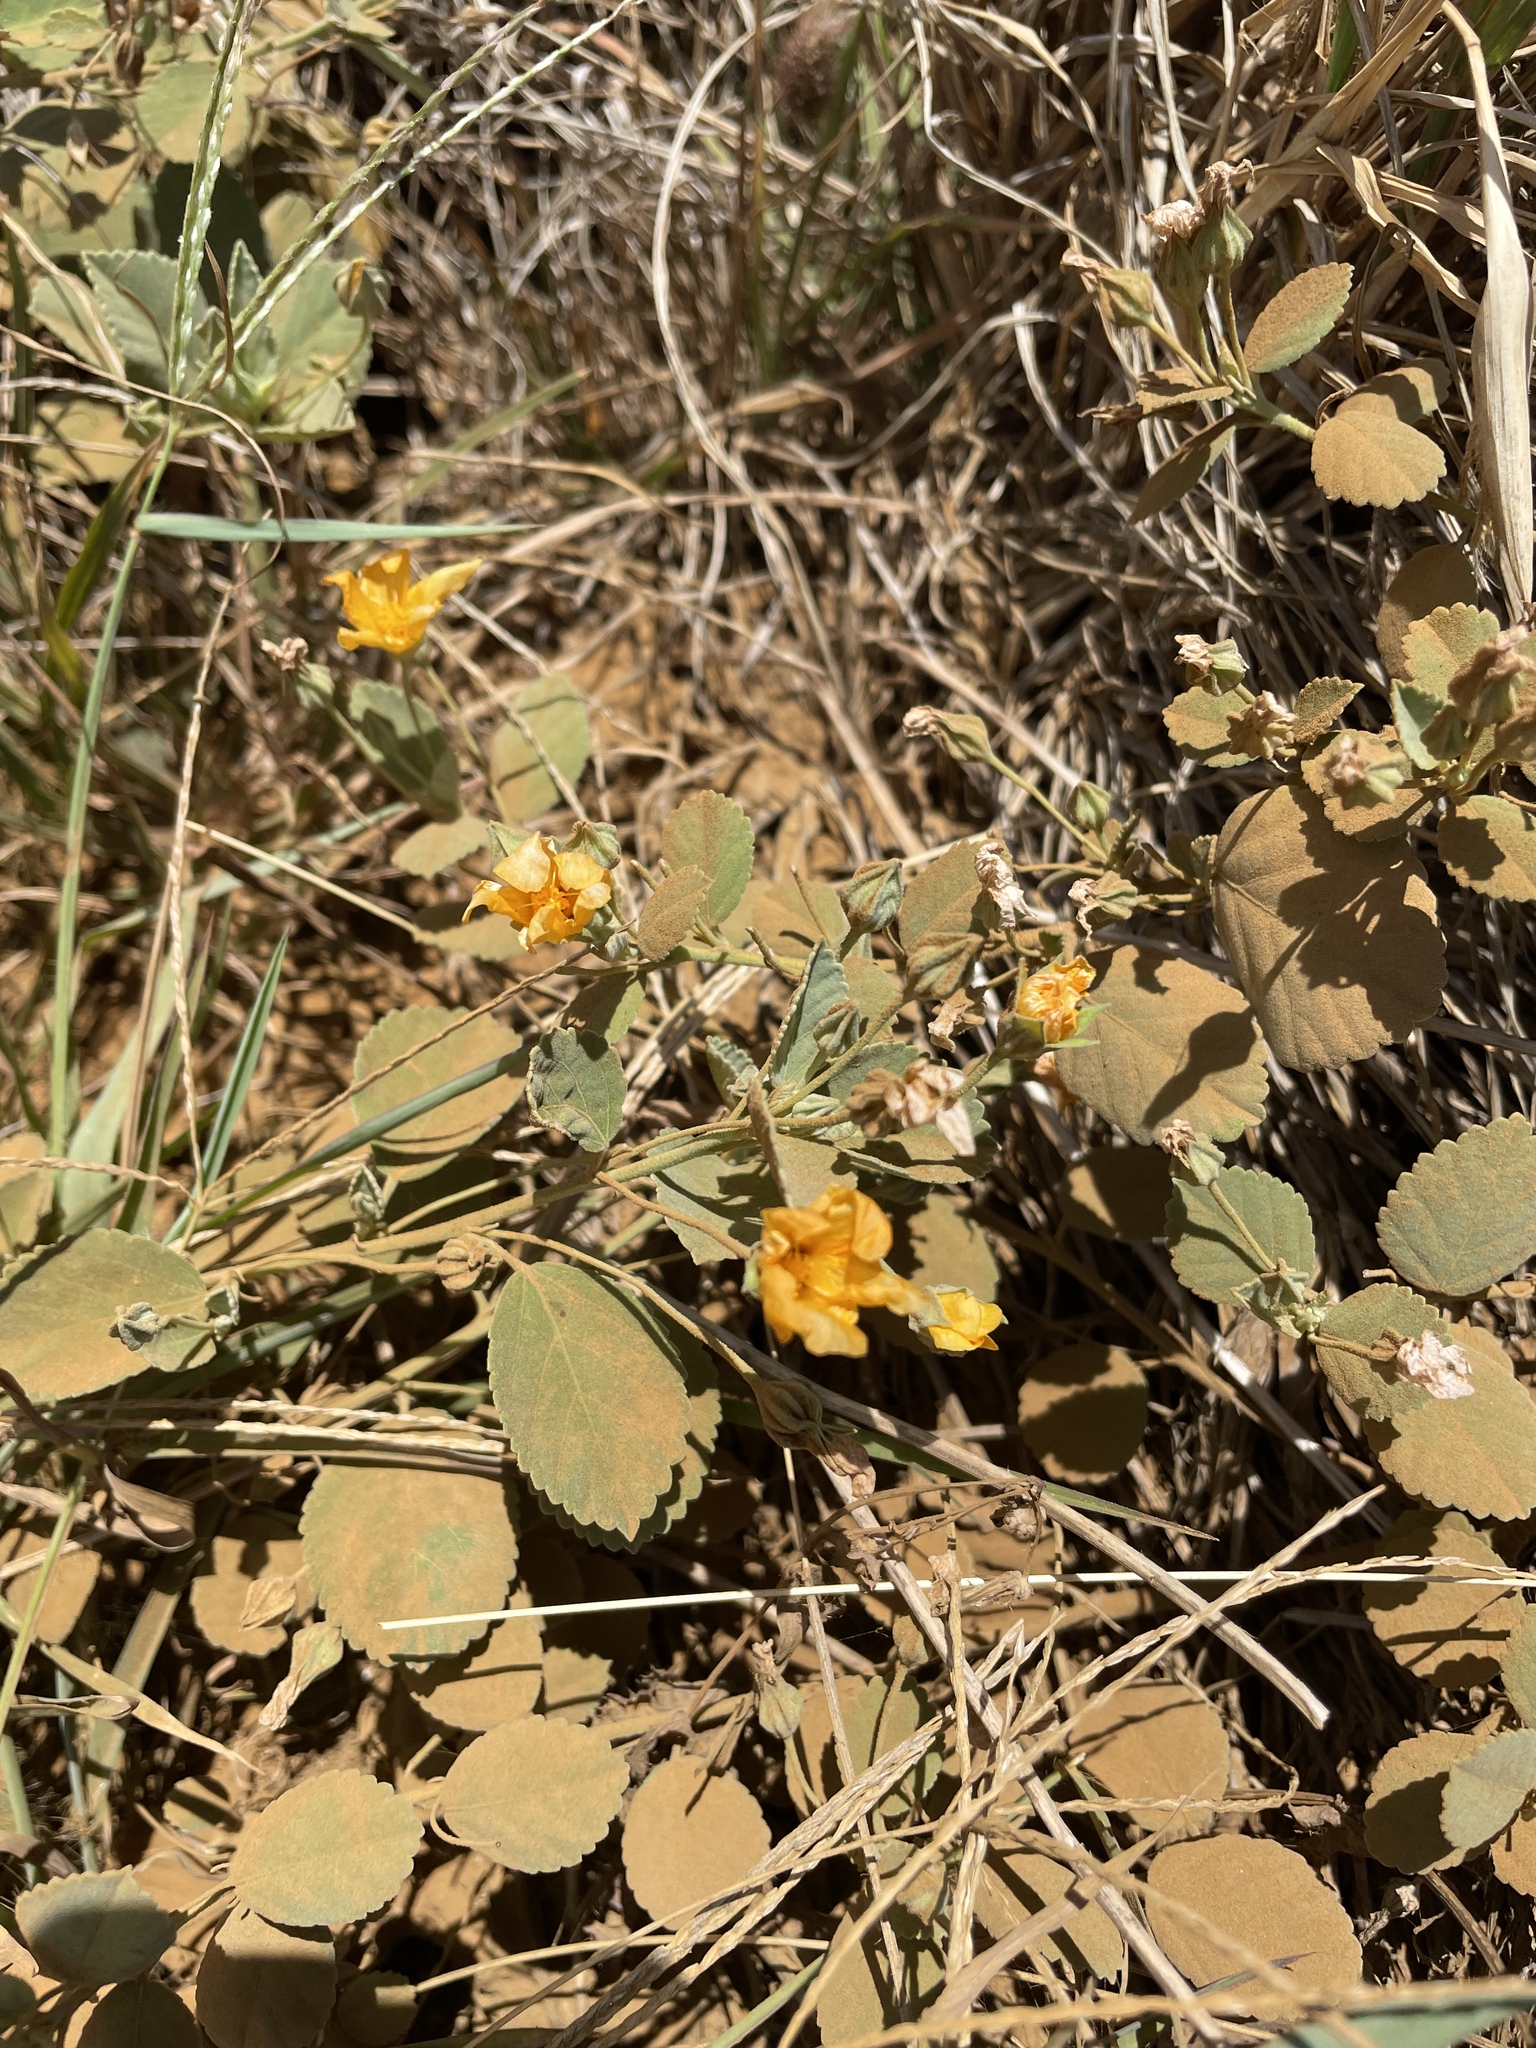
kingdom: Plantae
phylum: Tracheophyta
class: Magnoliopsida
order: Malvales
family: Malvaceae
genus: Sida
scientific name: Sida fallax
